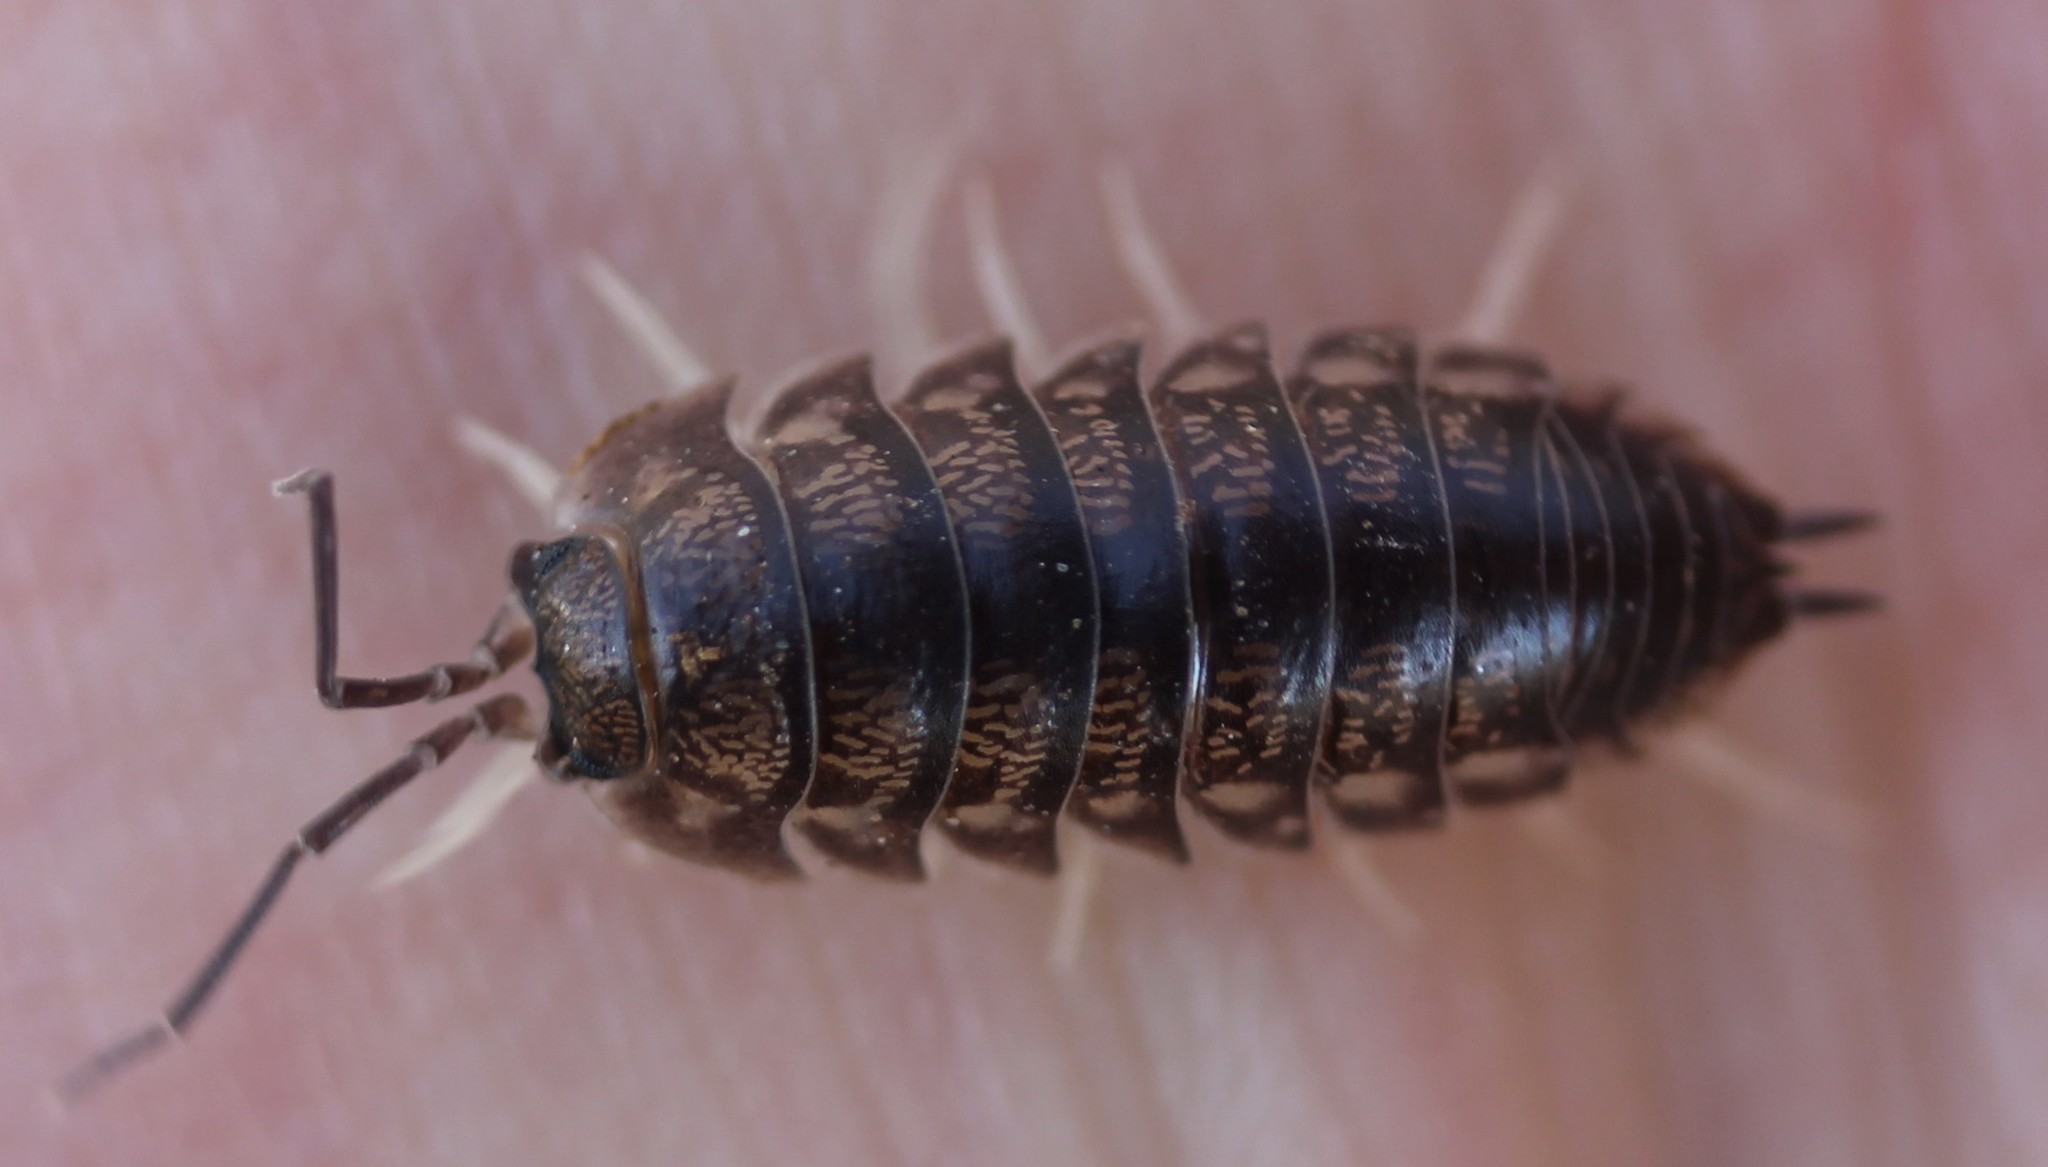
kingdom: Animalia
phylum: Arthropoda
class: Malacostraca
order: Isopoda
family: Cylisticidae
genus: Cylisticus
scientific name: Cylisticus convexus
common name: Curly woodlouse
